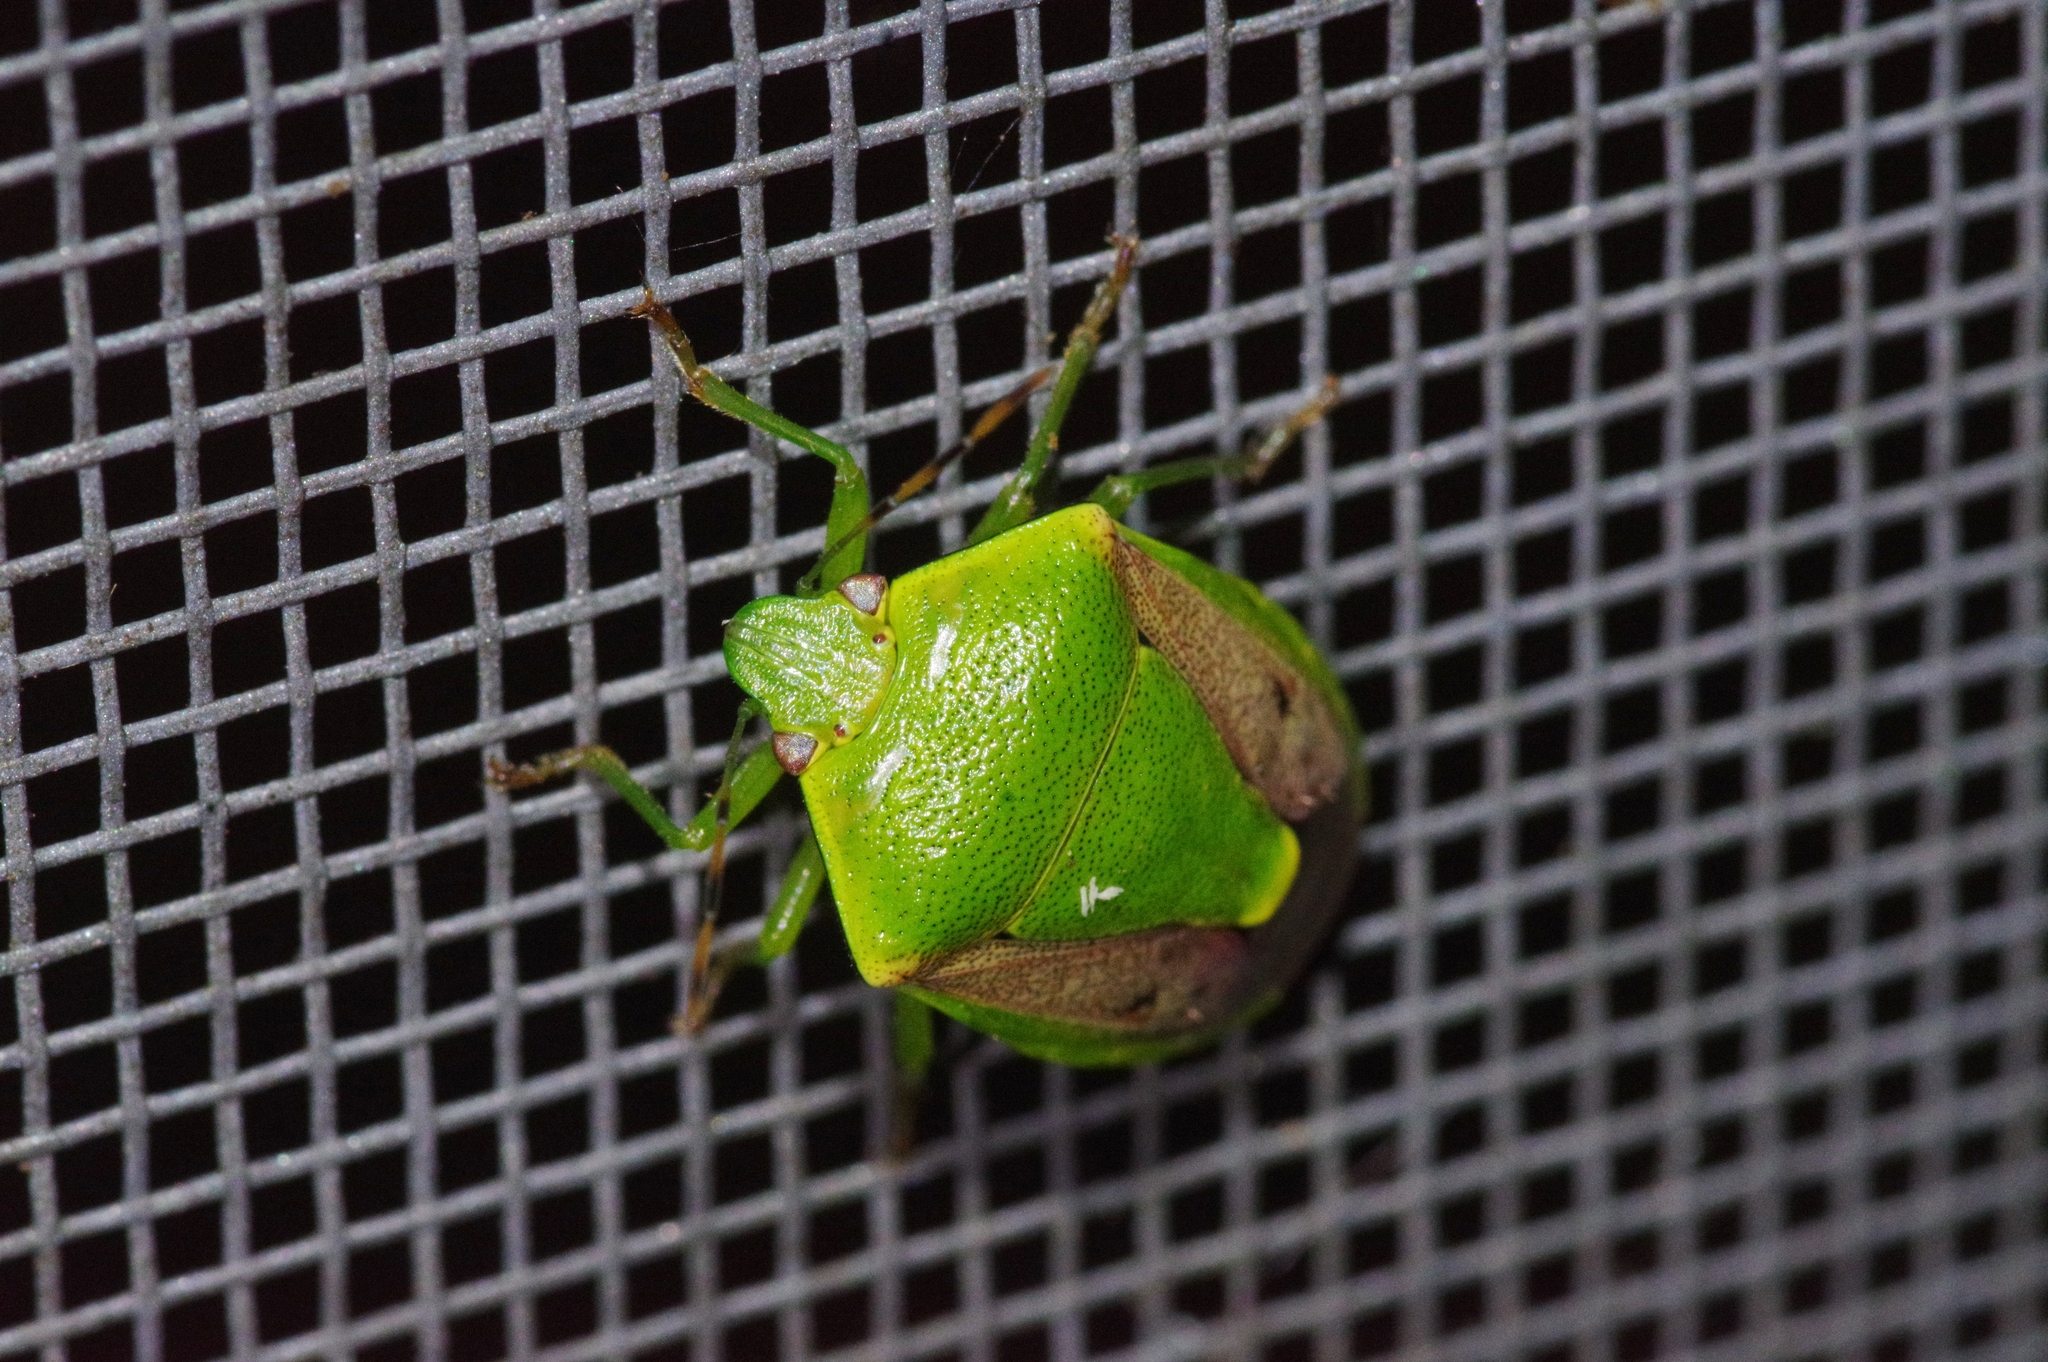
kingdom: Animalia
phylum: Arthropoda
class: Insecta
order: Hemiptera
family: Pentatomidae
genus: Plautia
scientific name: Plautia stali
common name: Stink bug
